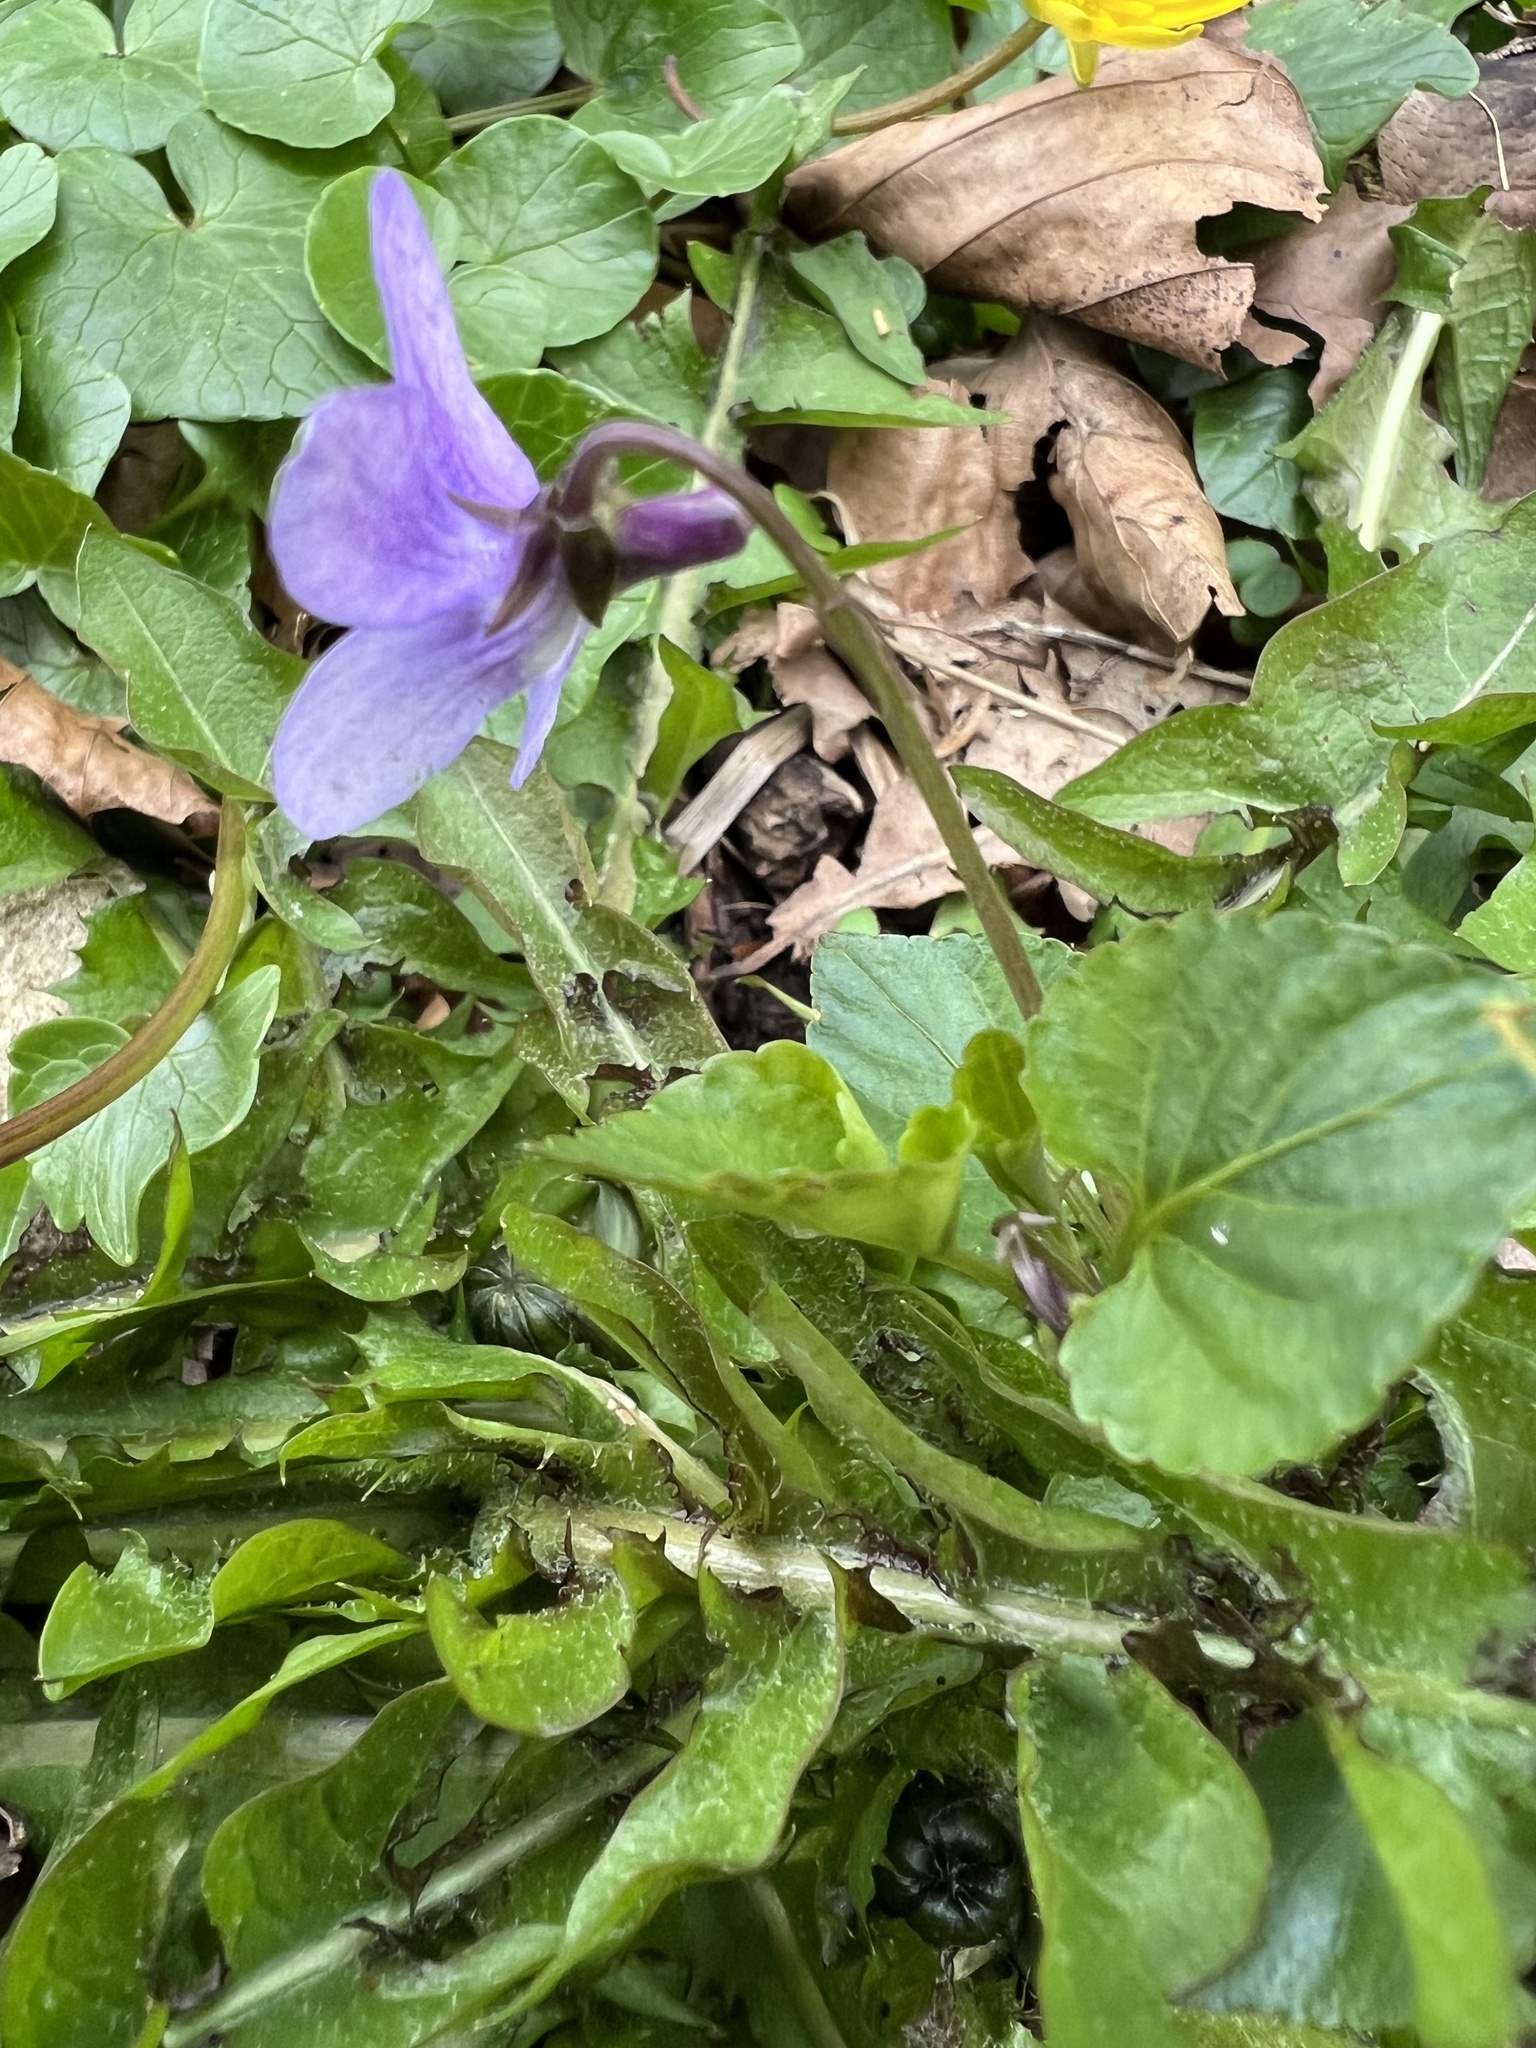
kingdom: Plantae
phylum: Tracheophyta
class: Magnoliopsida
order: Malpighiales
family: Violaceae
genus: Viola
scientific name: Viola reichenbachiana
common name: Early dog-violet
